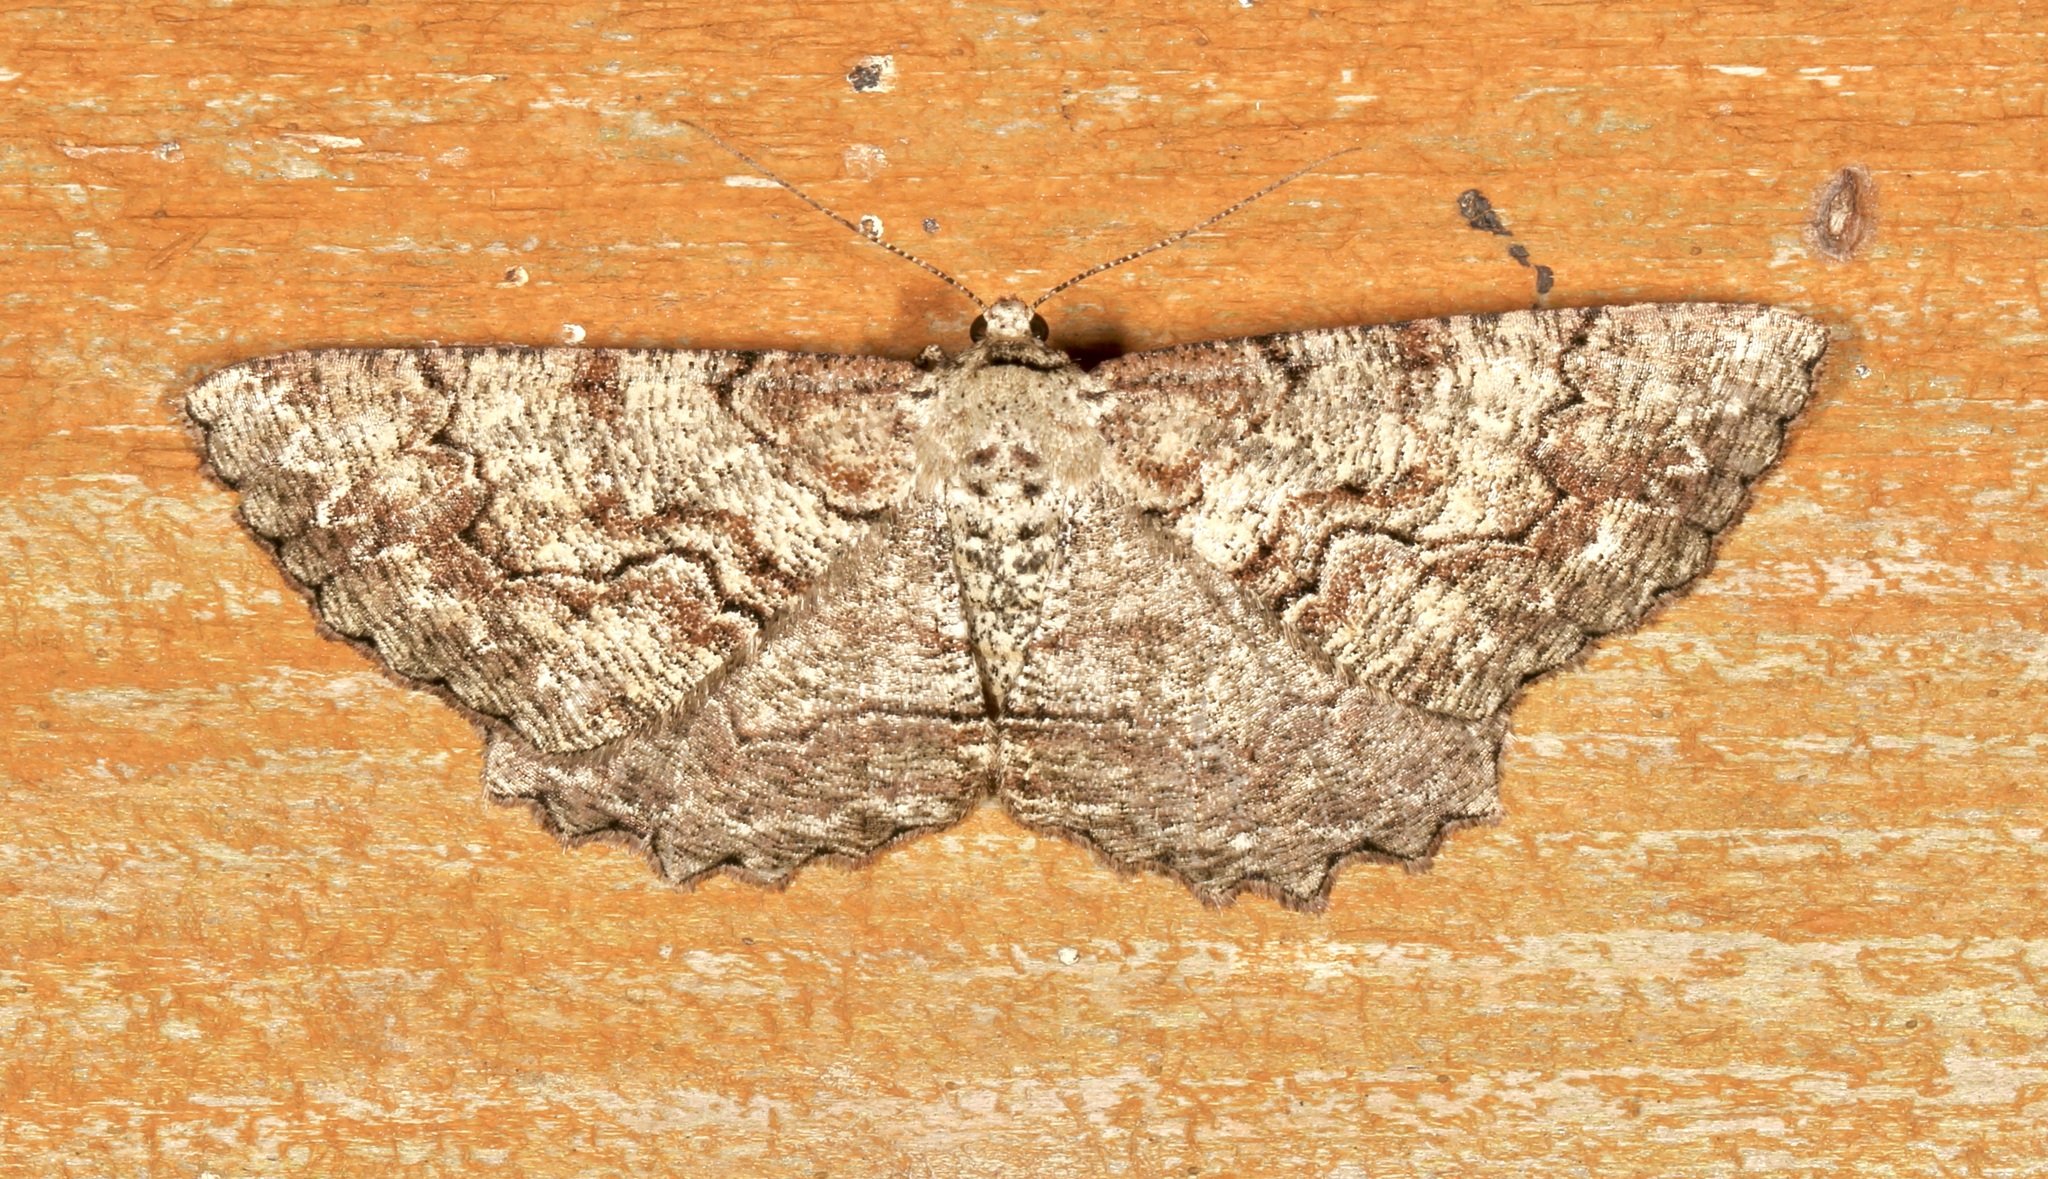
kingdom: Animalia
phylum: Arthropoda
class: Insecta
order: Lepidoptera
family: Geometridae
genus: Cymatophora
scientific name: Cymatophora approximaria
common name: Giant gray moth
